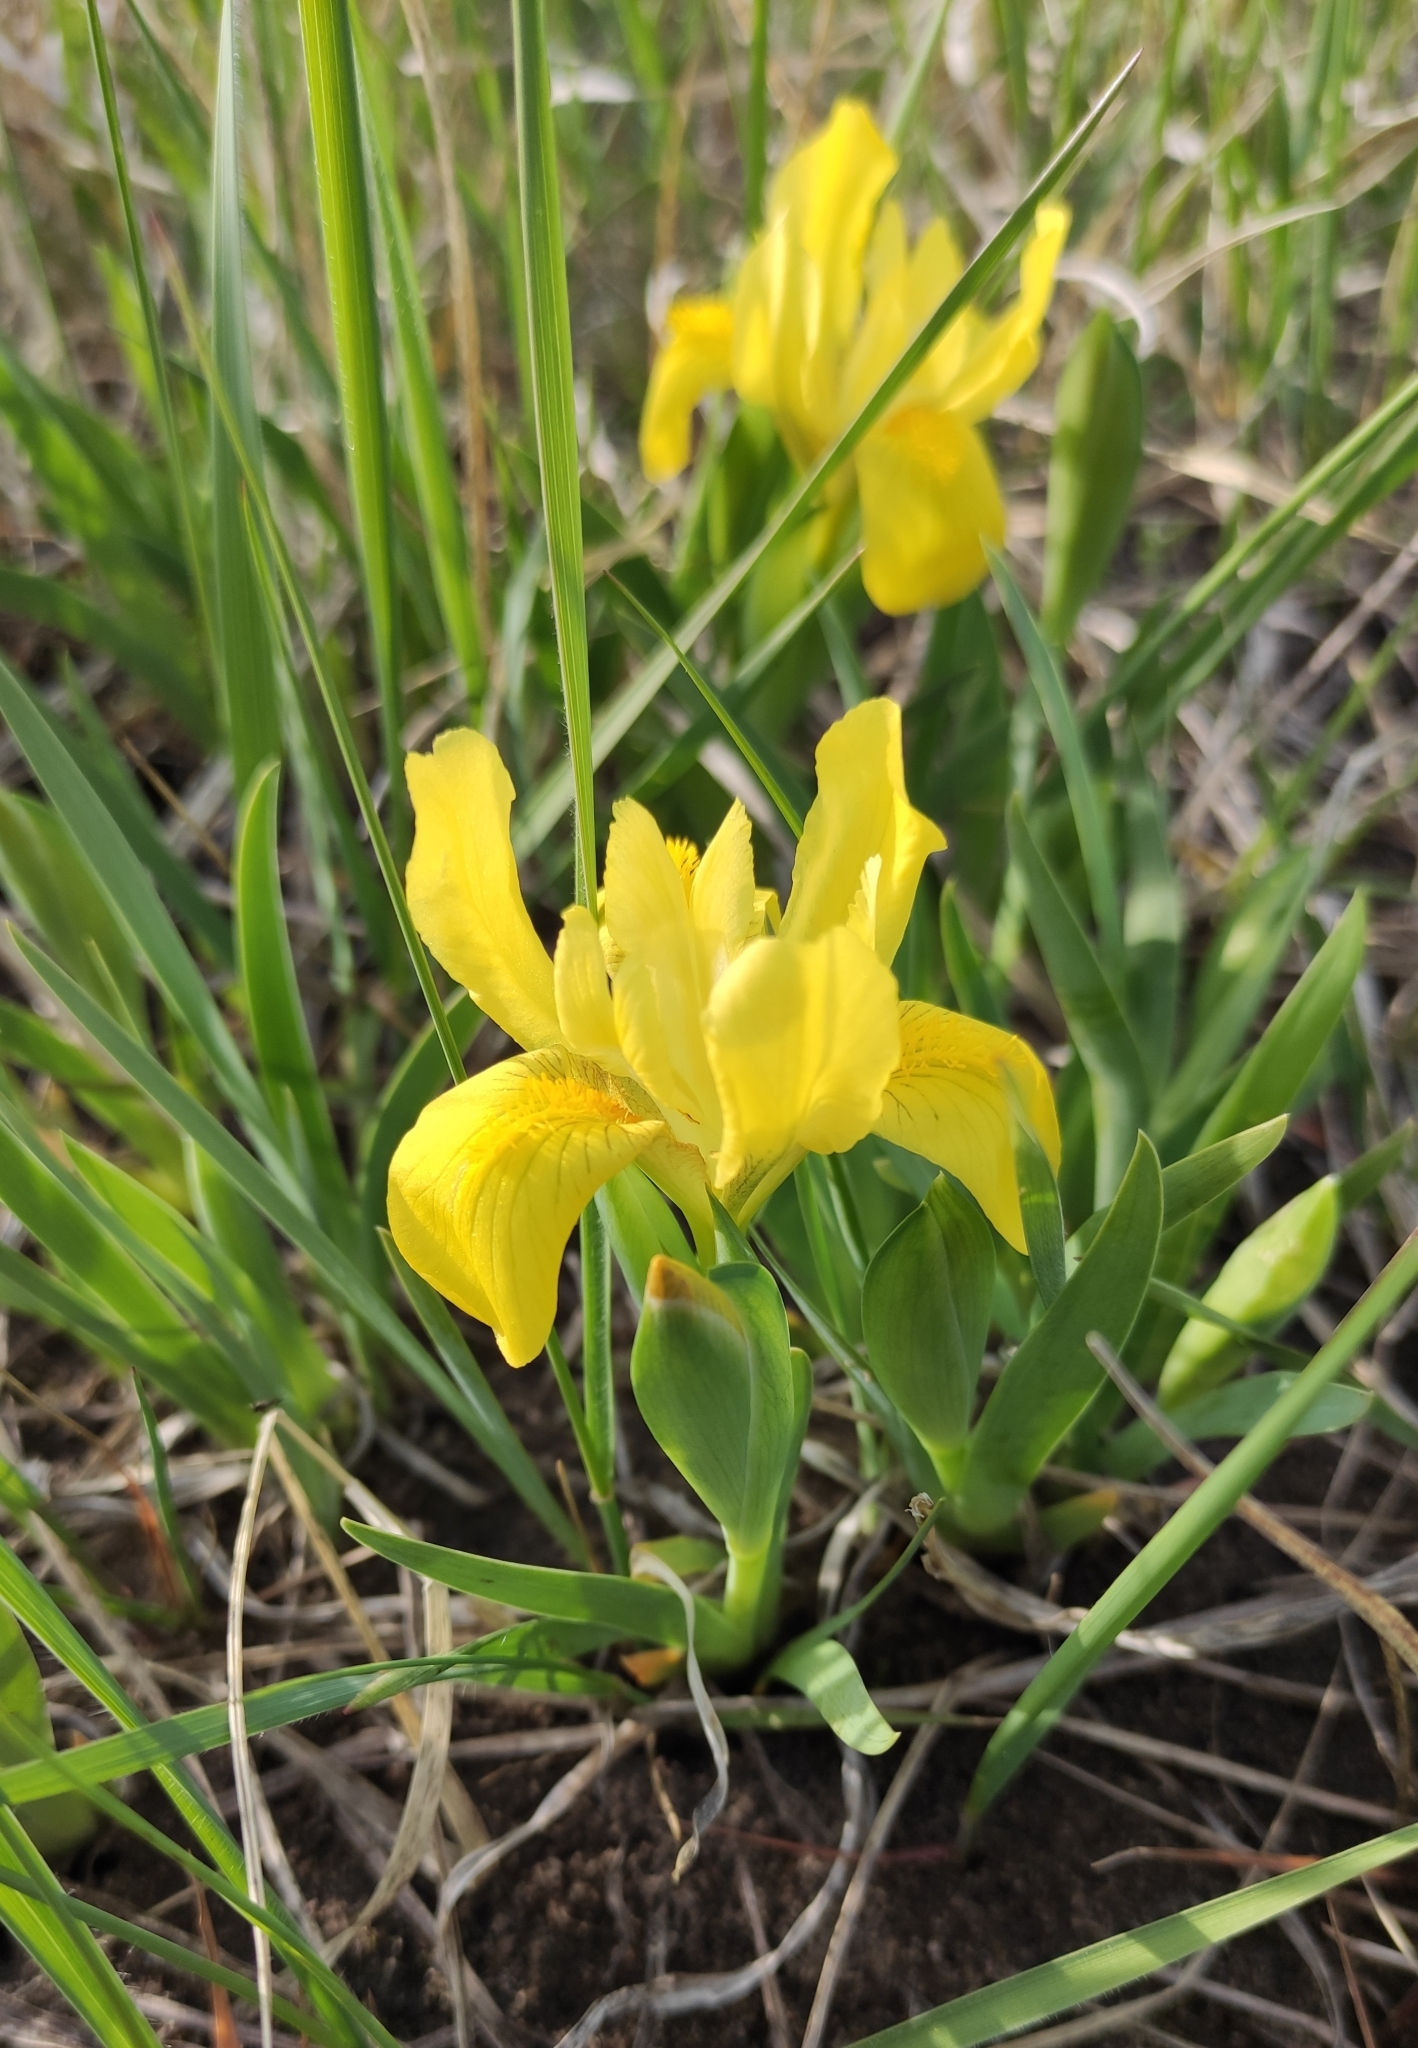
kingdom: Plantae
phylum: Tracheophyta
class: Liliopsida
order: Asparagales
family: Iridaceae
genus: Iris
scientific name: Iris humilis
